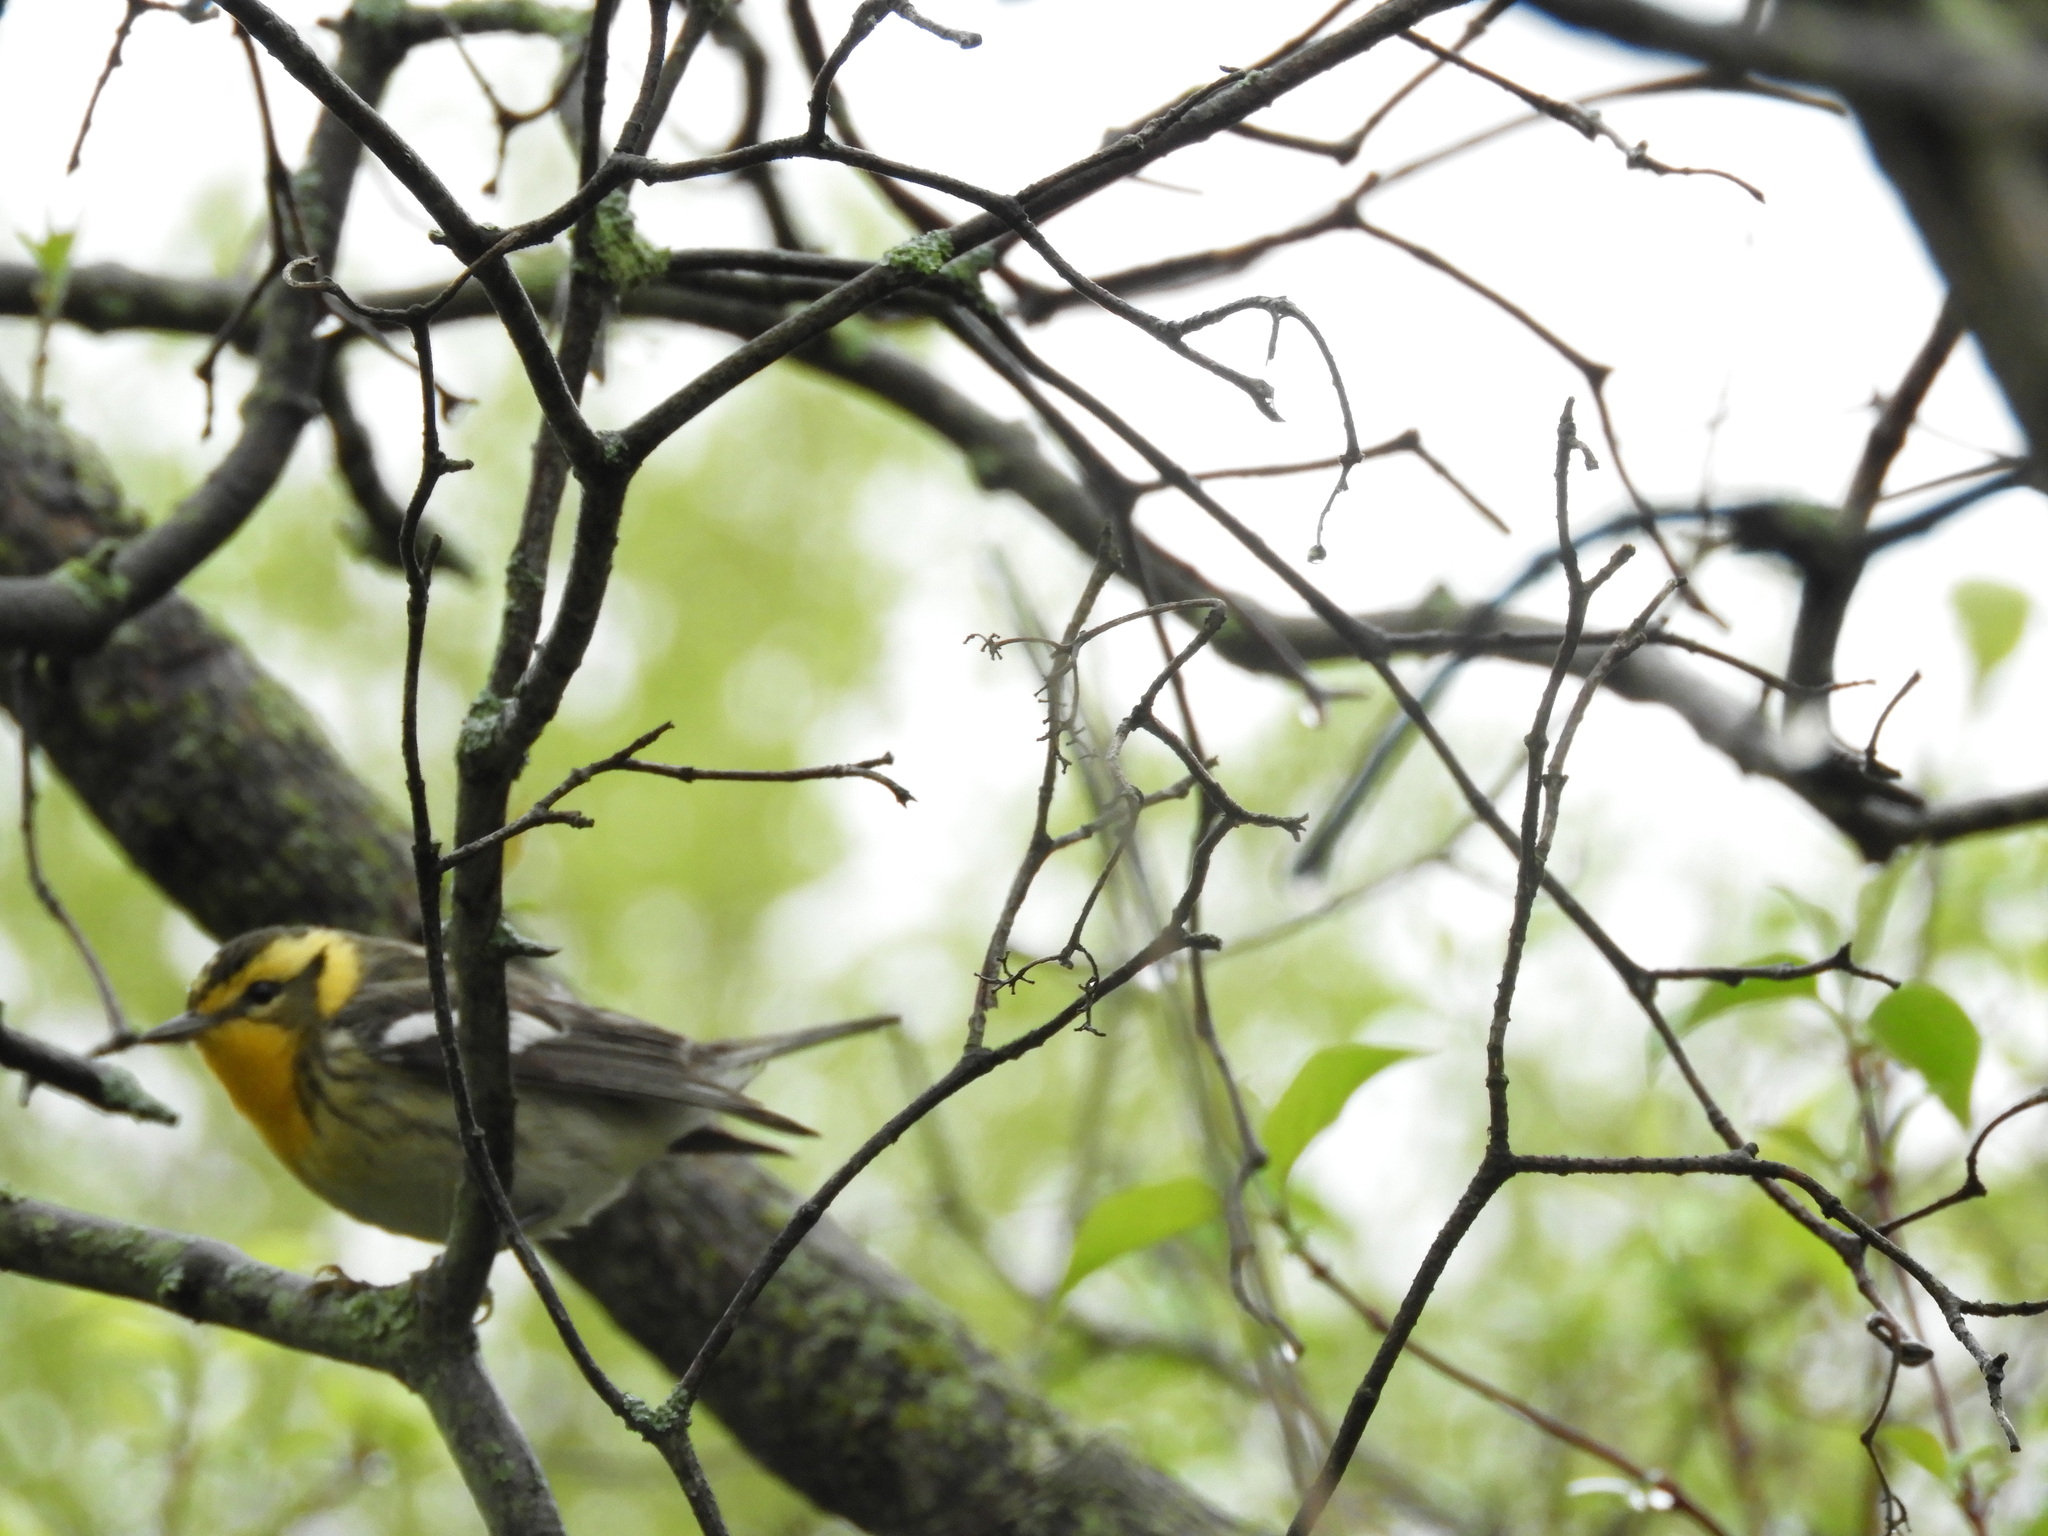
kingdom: Animalia
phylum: Chordata
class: Aves
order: Passeriformes
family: Parulidae
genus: Setophaga
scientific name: Setophaga fusca
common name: Blackburnian warbler
